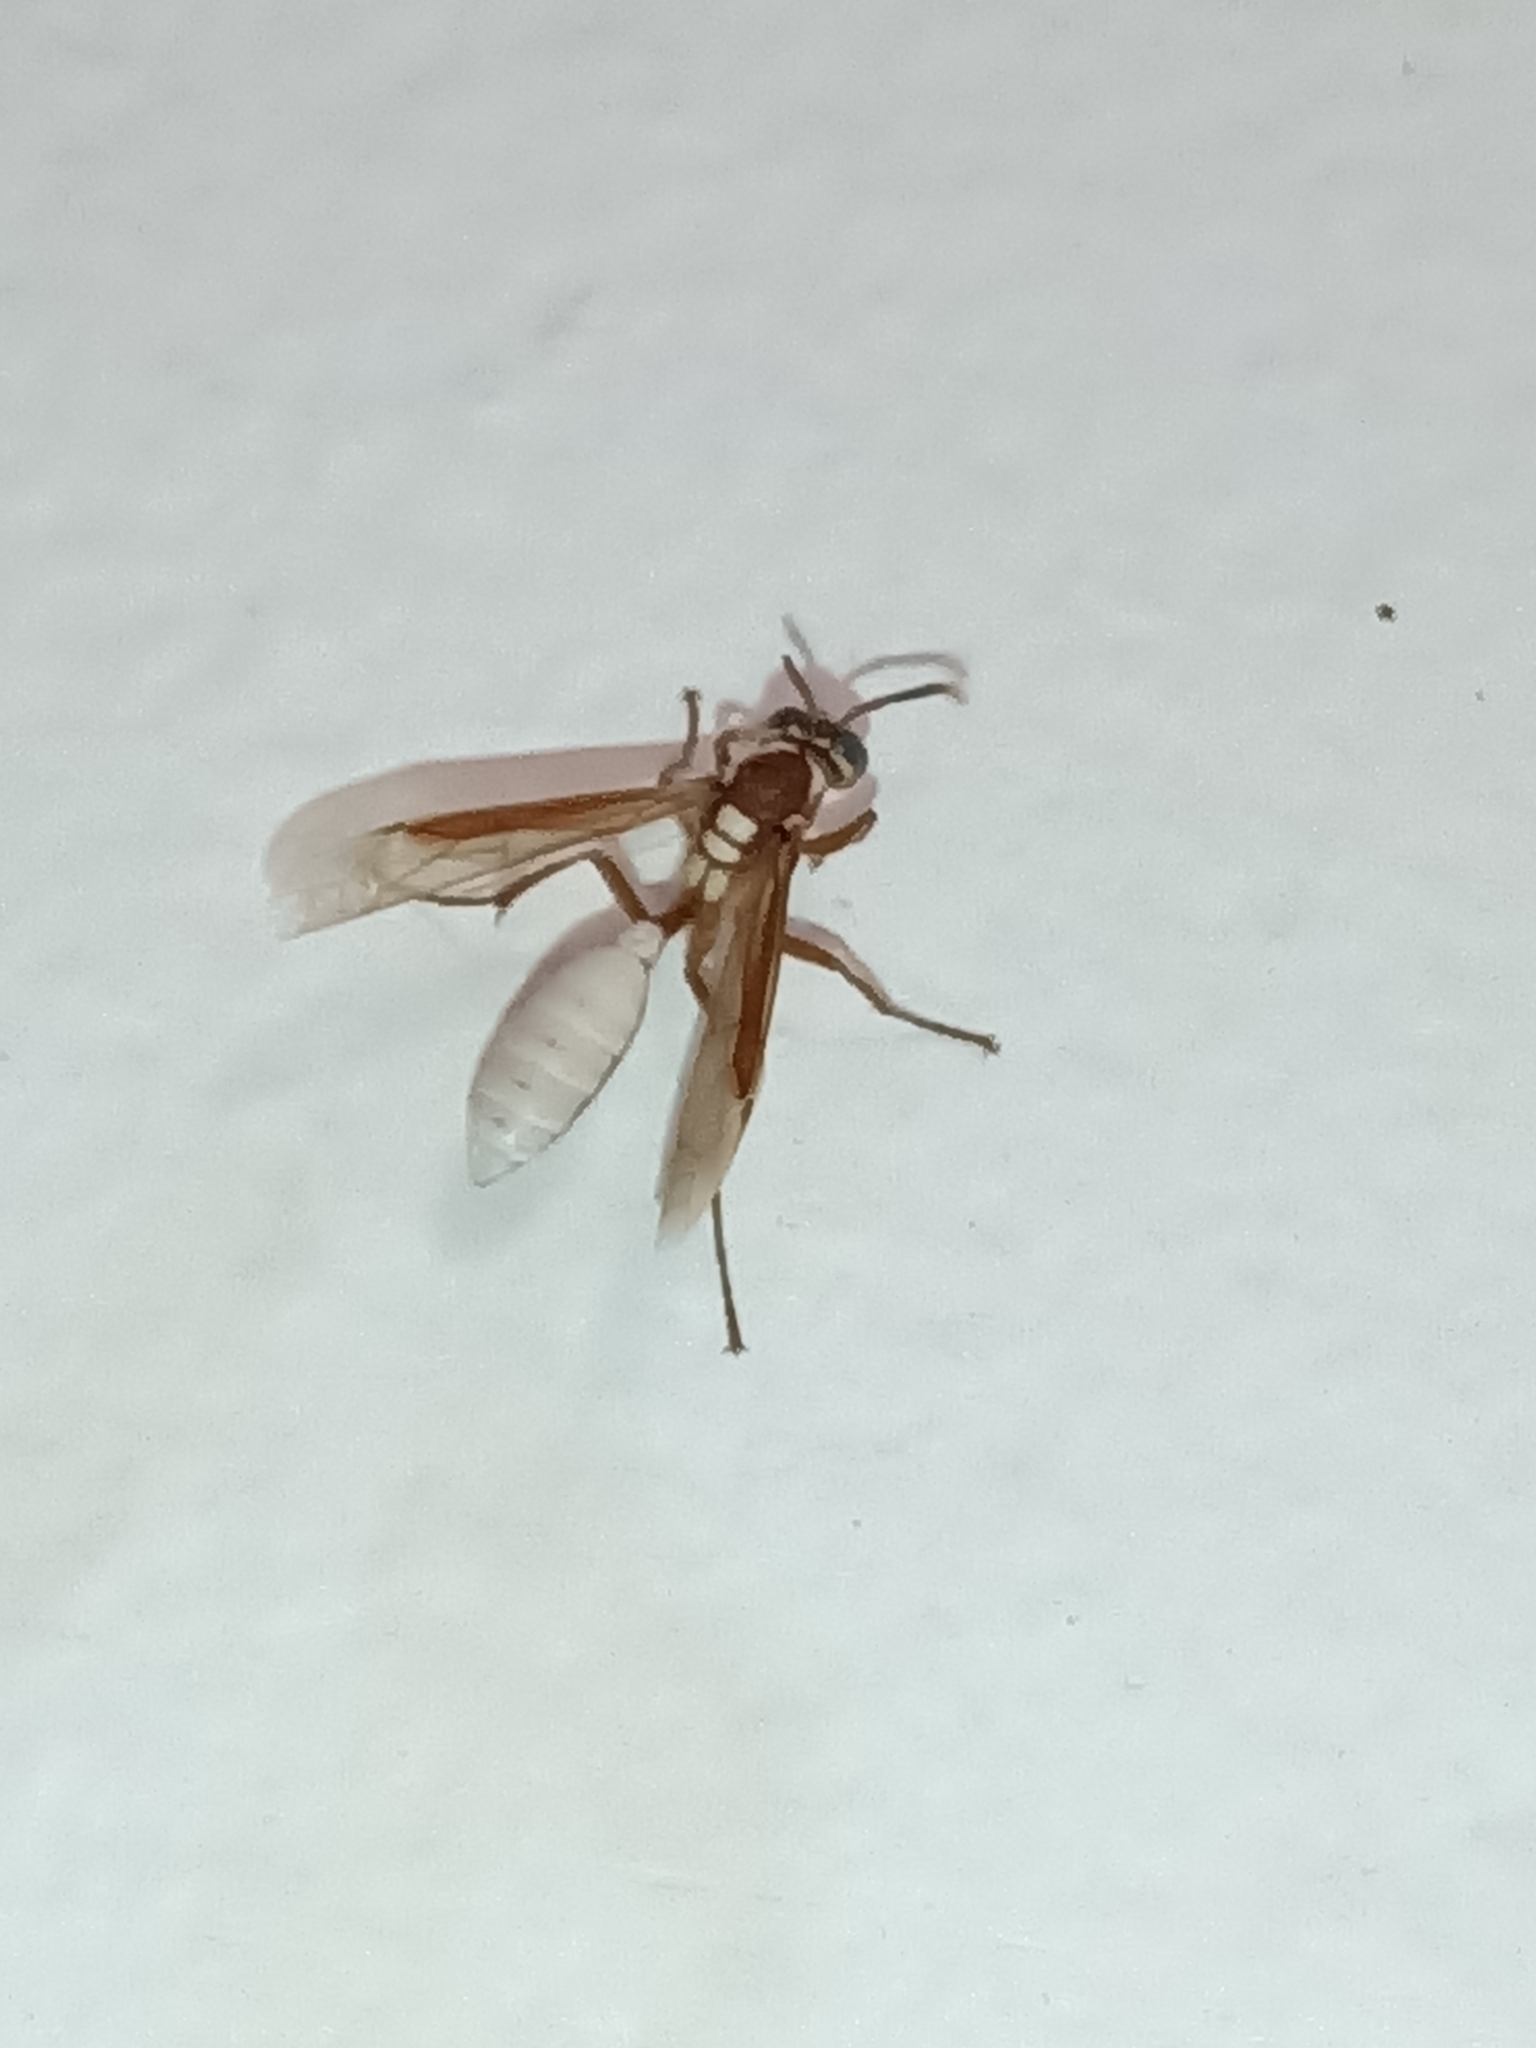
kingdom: Animalia
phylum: Arthropoda
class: Insecta
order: Hymenoptera
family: Vespidae
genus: Apoica
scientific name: Apoica gelida
